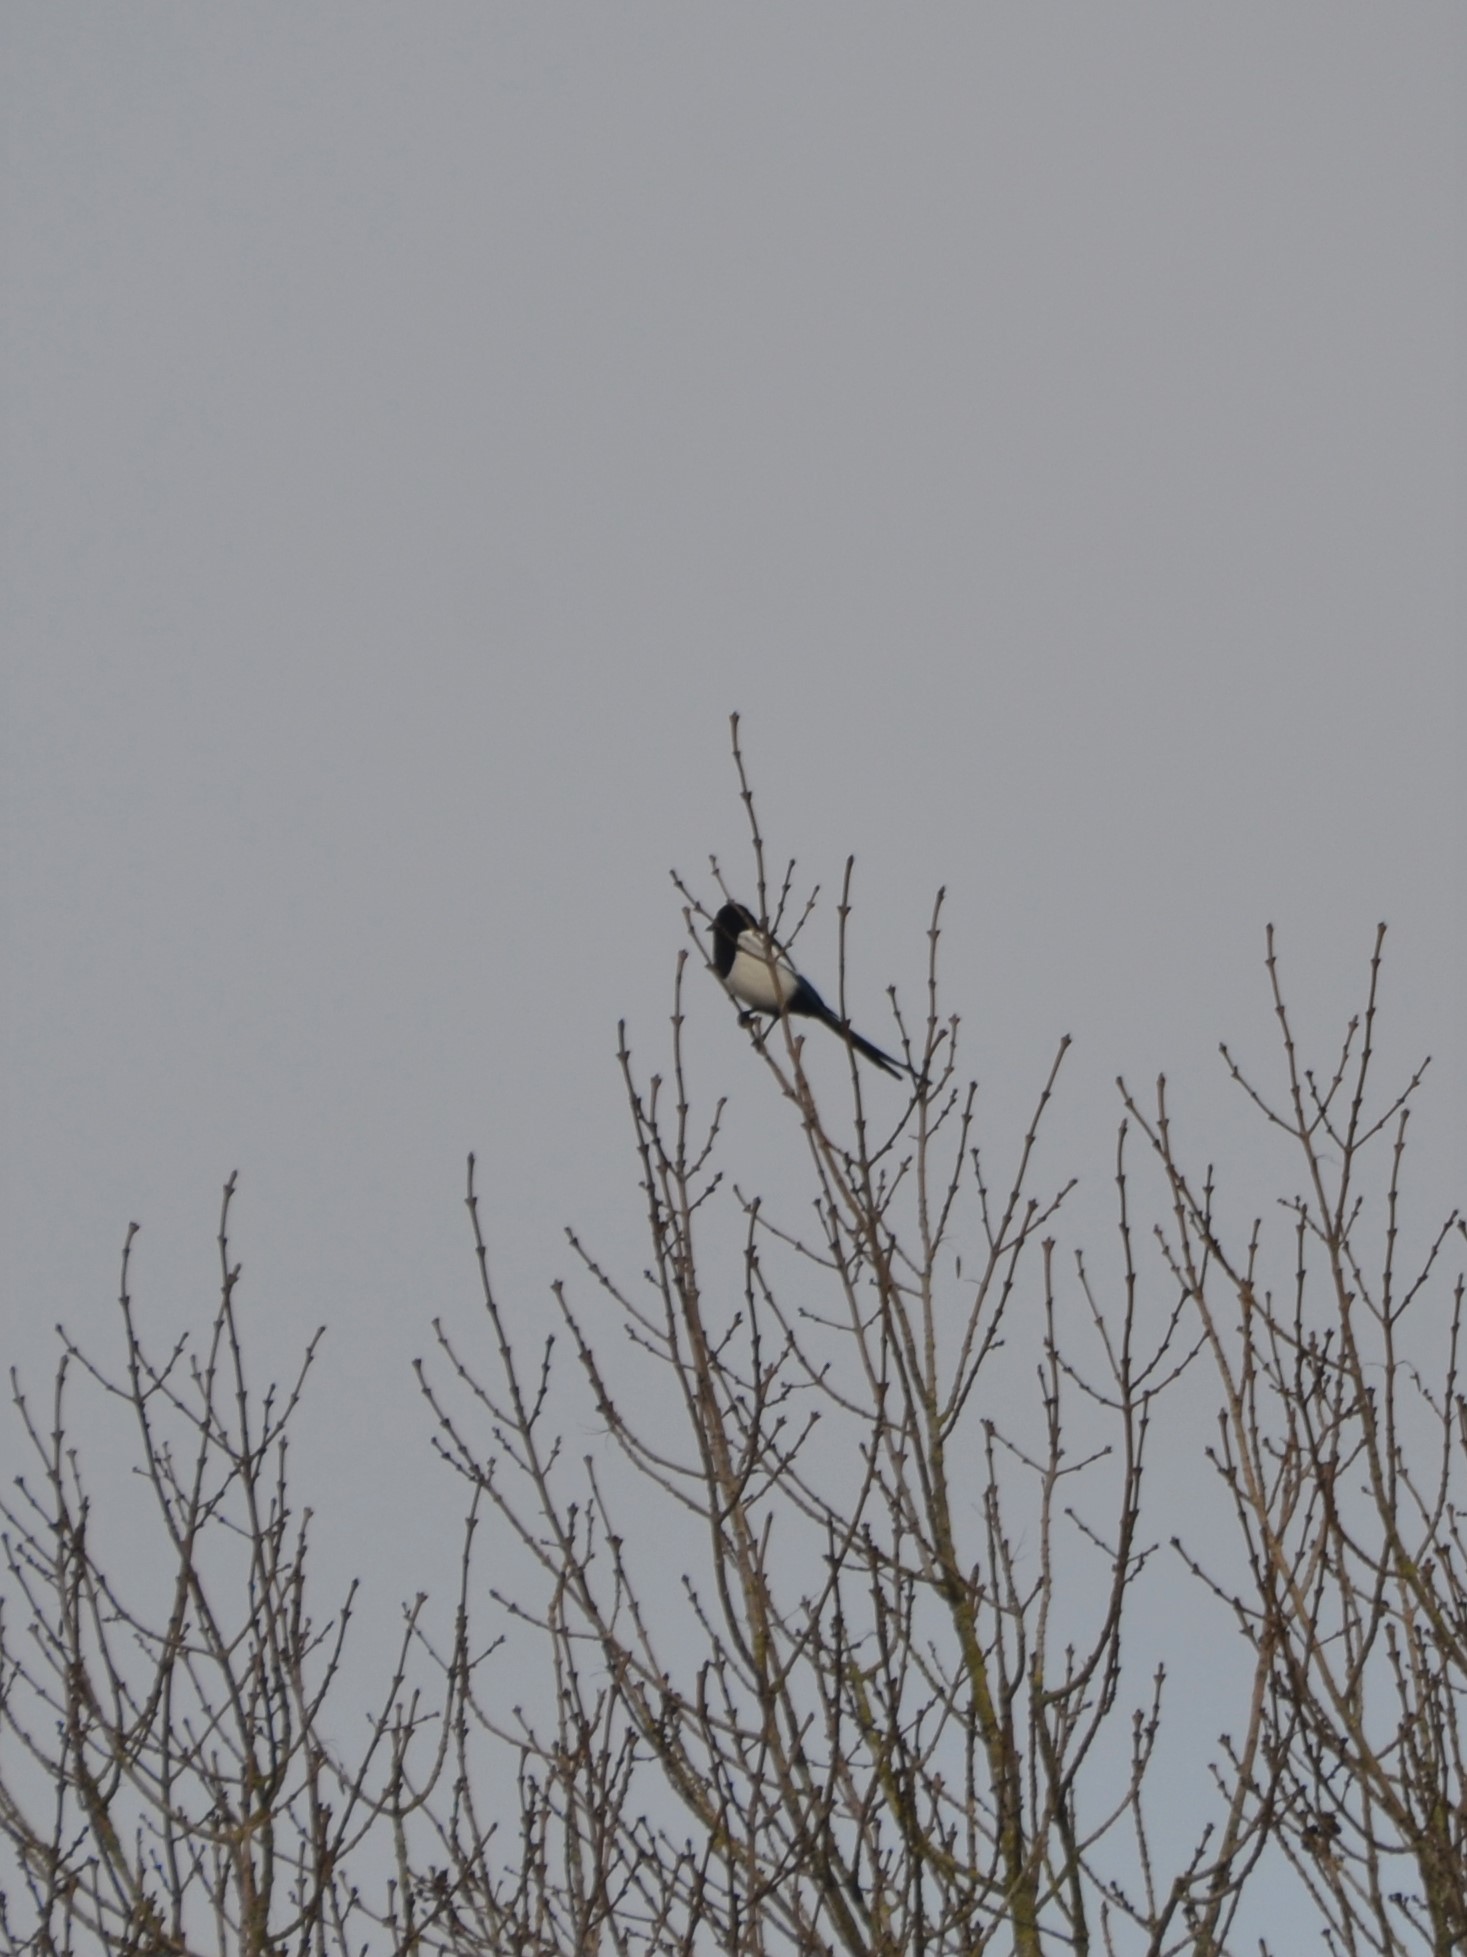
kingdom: Animalia
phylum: Chordata
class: Aves
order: Passeriformes
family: Corvidae
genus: Pica
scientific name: Pica pica
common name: Eurasian magpie
